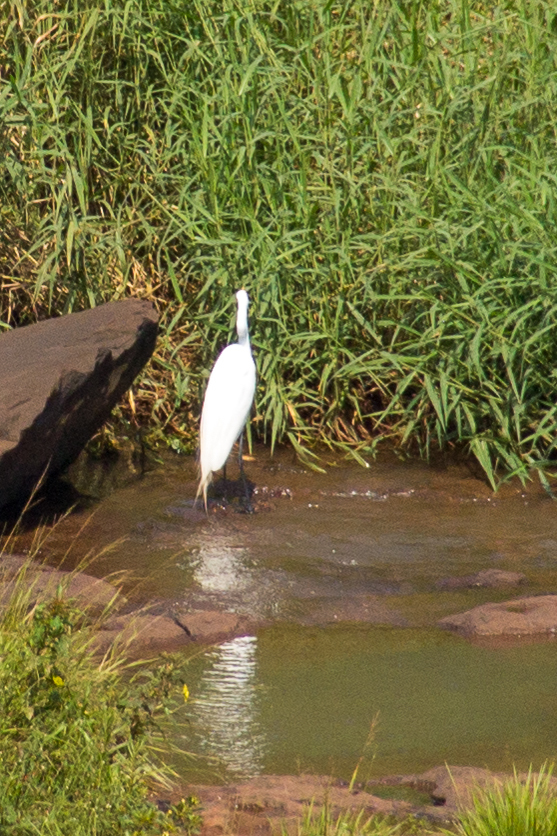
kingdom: Animalia
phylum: Chordata
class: Aves
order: Pelecaniformes
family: Ardeidae
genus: Ardea
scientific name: Ardea alba
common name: Great egret
